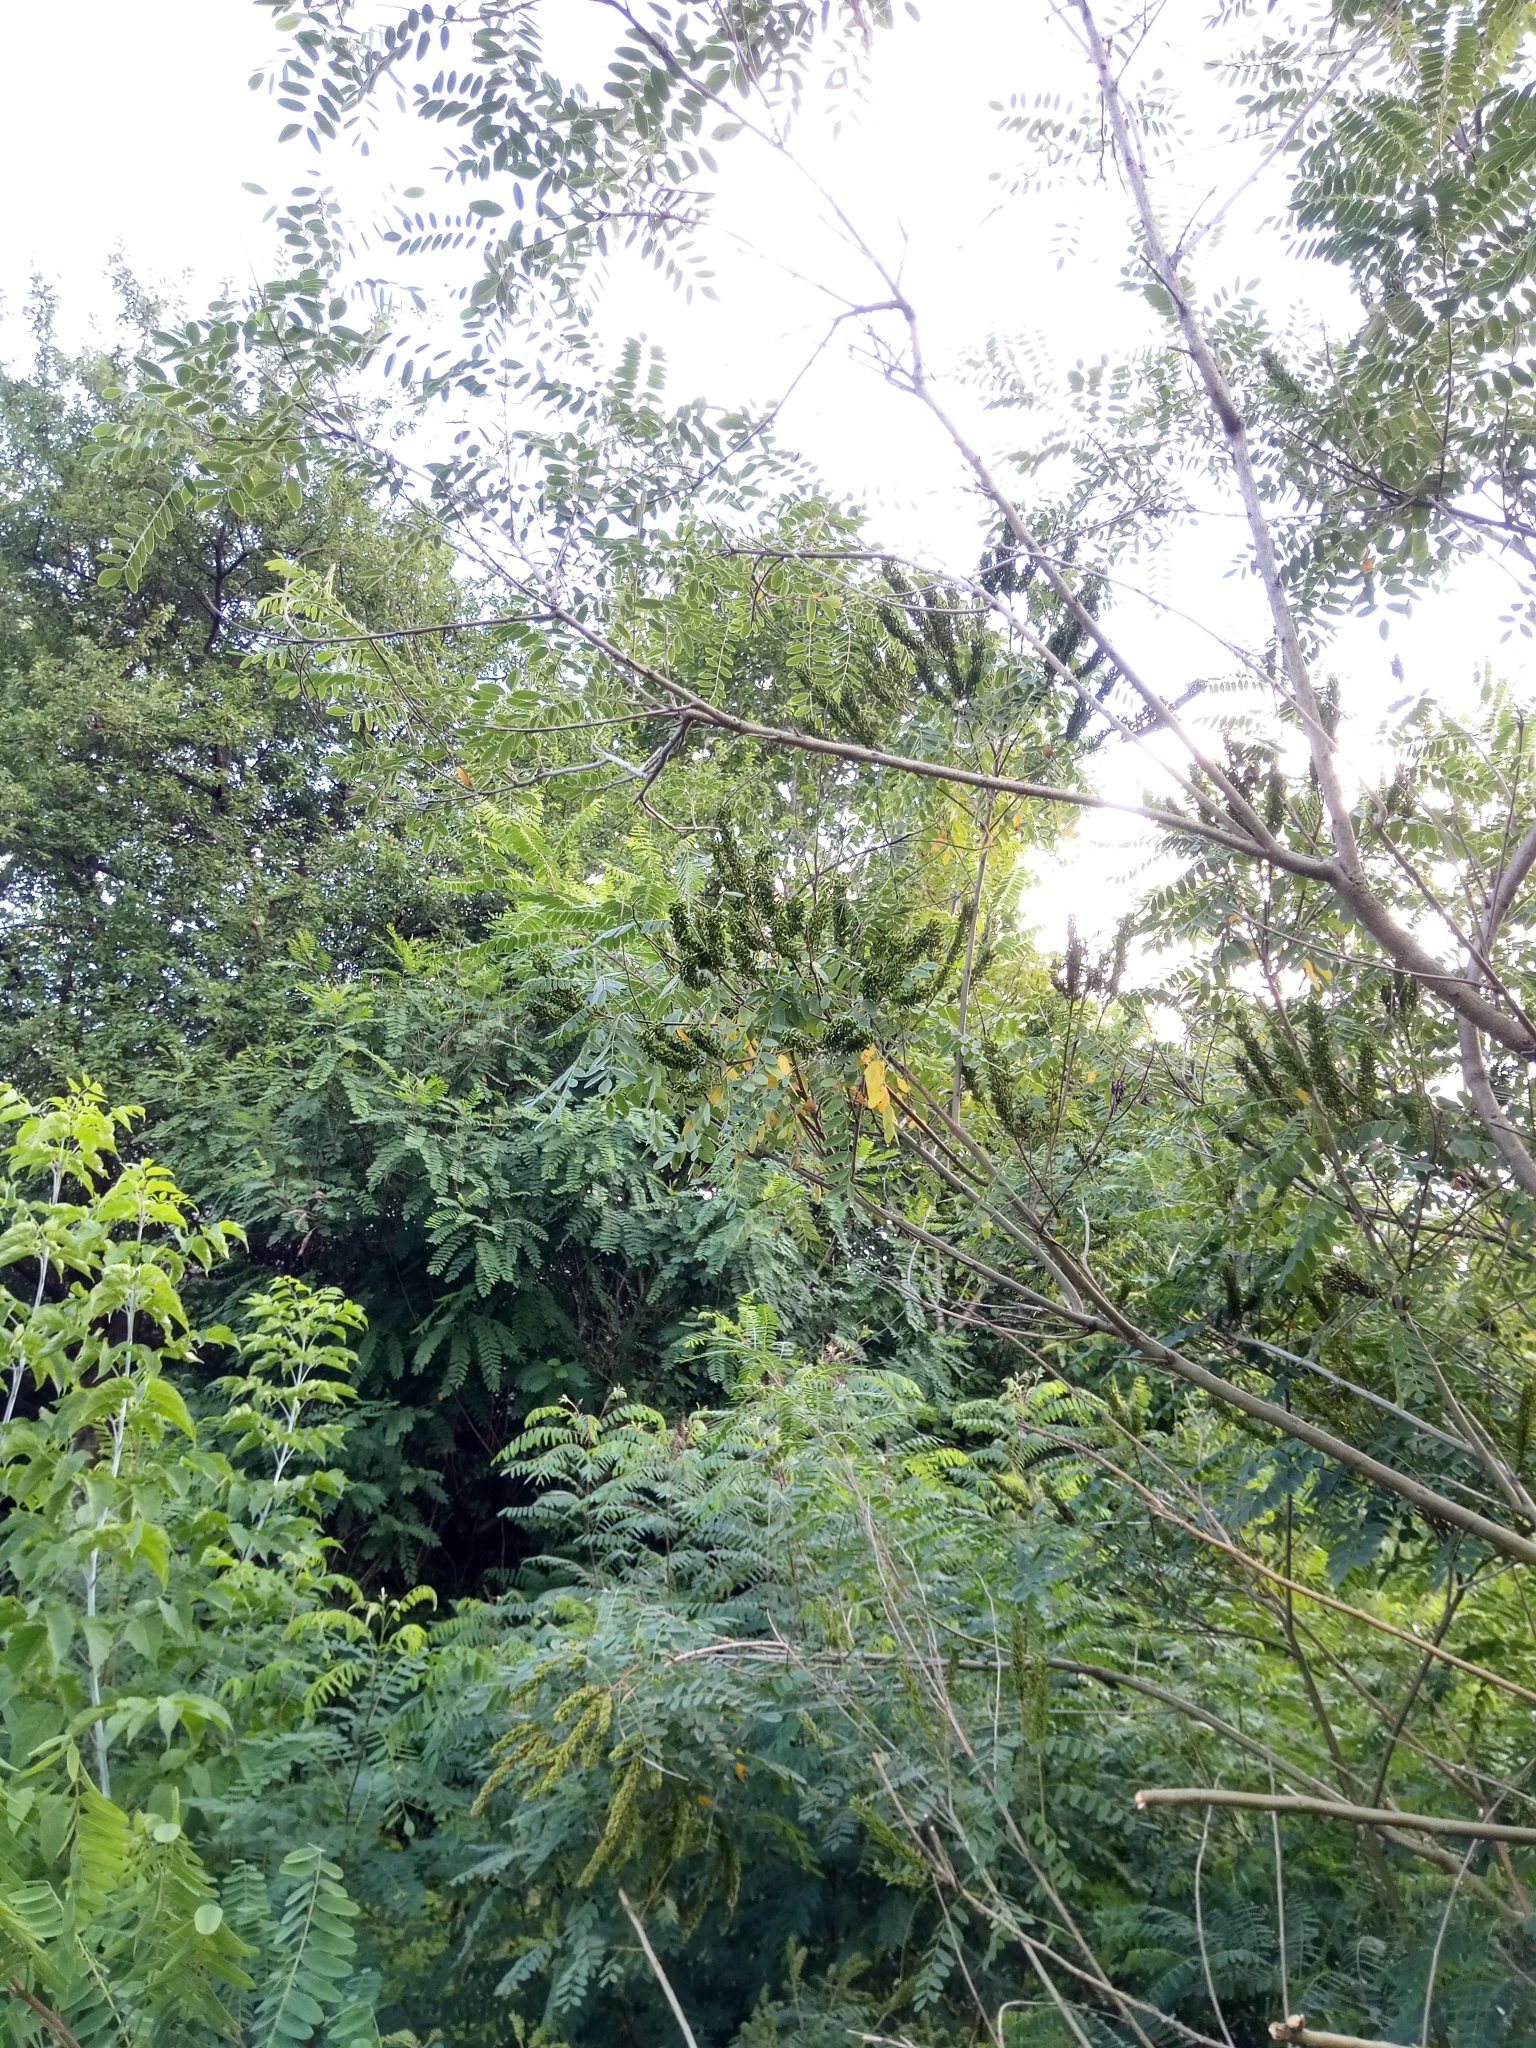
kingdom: Plantae
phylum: Tracheophyta
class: Magnoliopsida
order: Fabales
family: Fabaceae
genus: Amorpha
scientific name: Amorpha fruticosa
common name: False indigo
